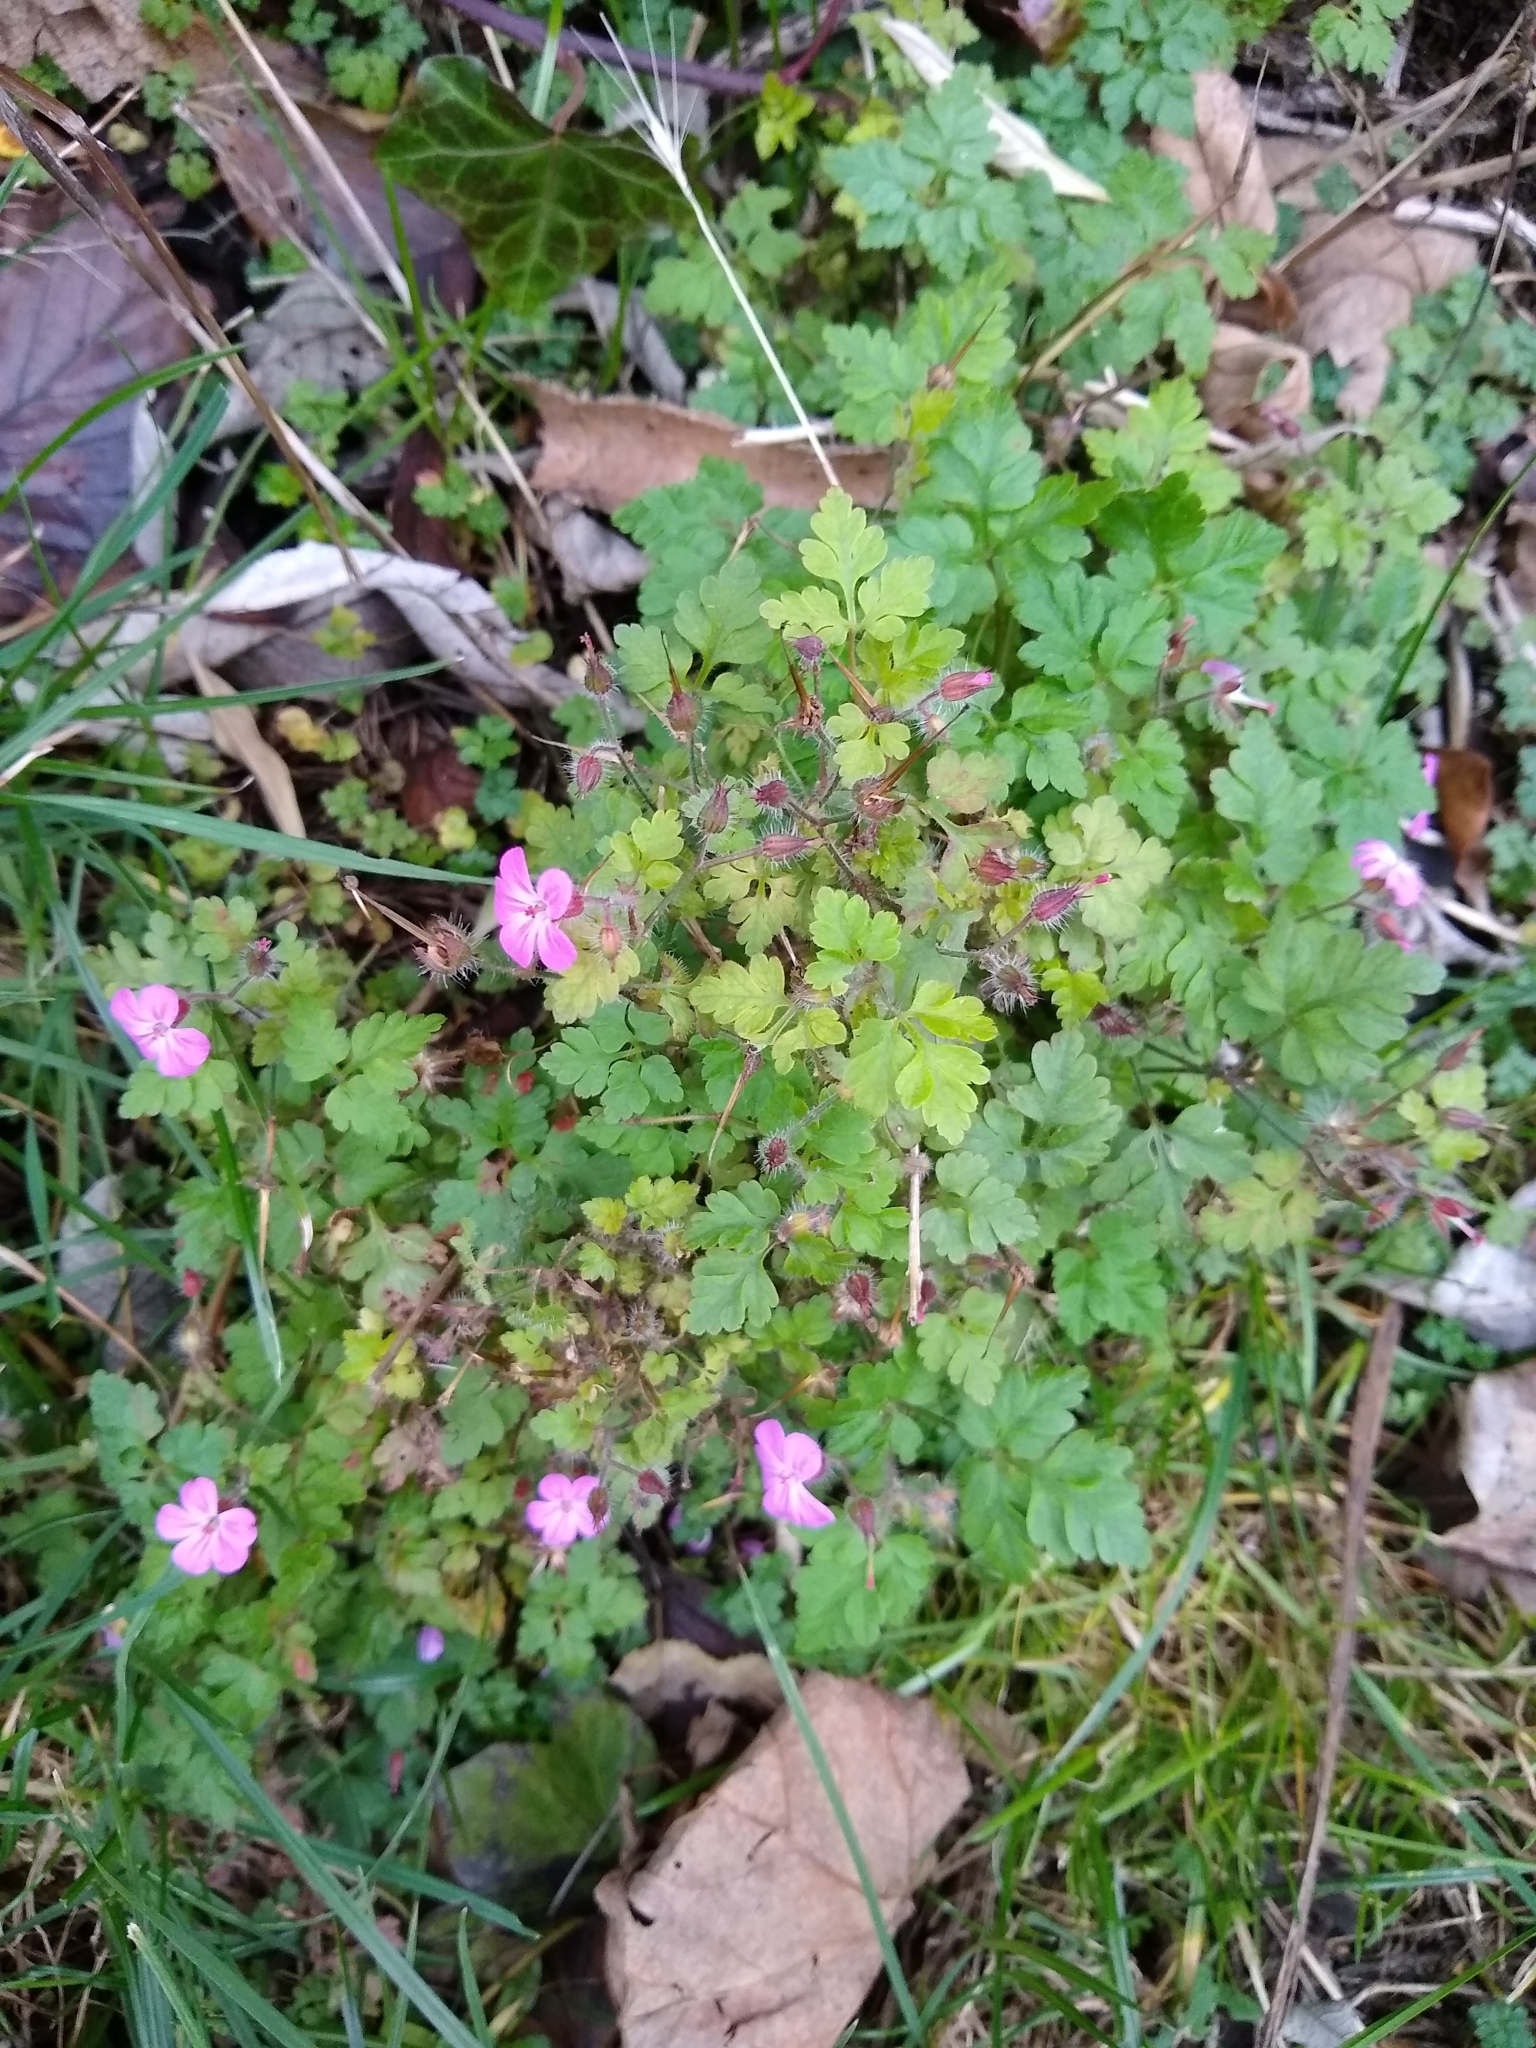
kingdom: Plantae
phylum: Tracheophyta
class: Magnoliopsida
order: Geraniales
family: Geraniaceae
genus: Geranium
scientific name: Geranium robertianum
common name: Herb-robert
